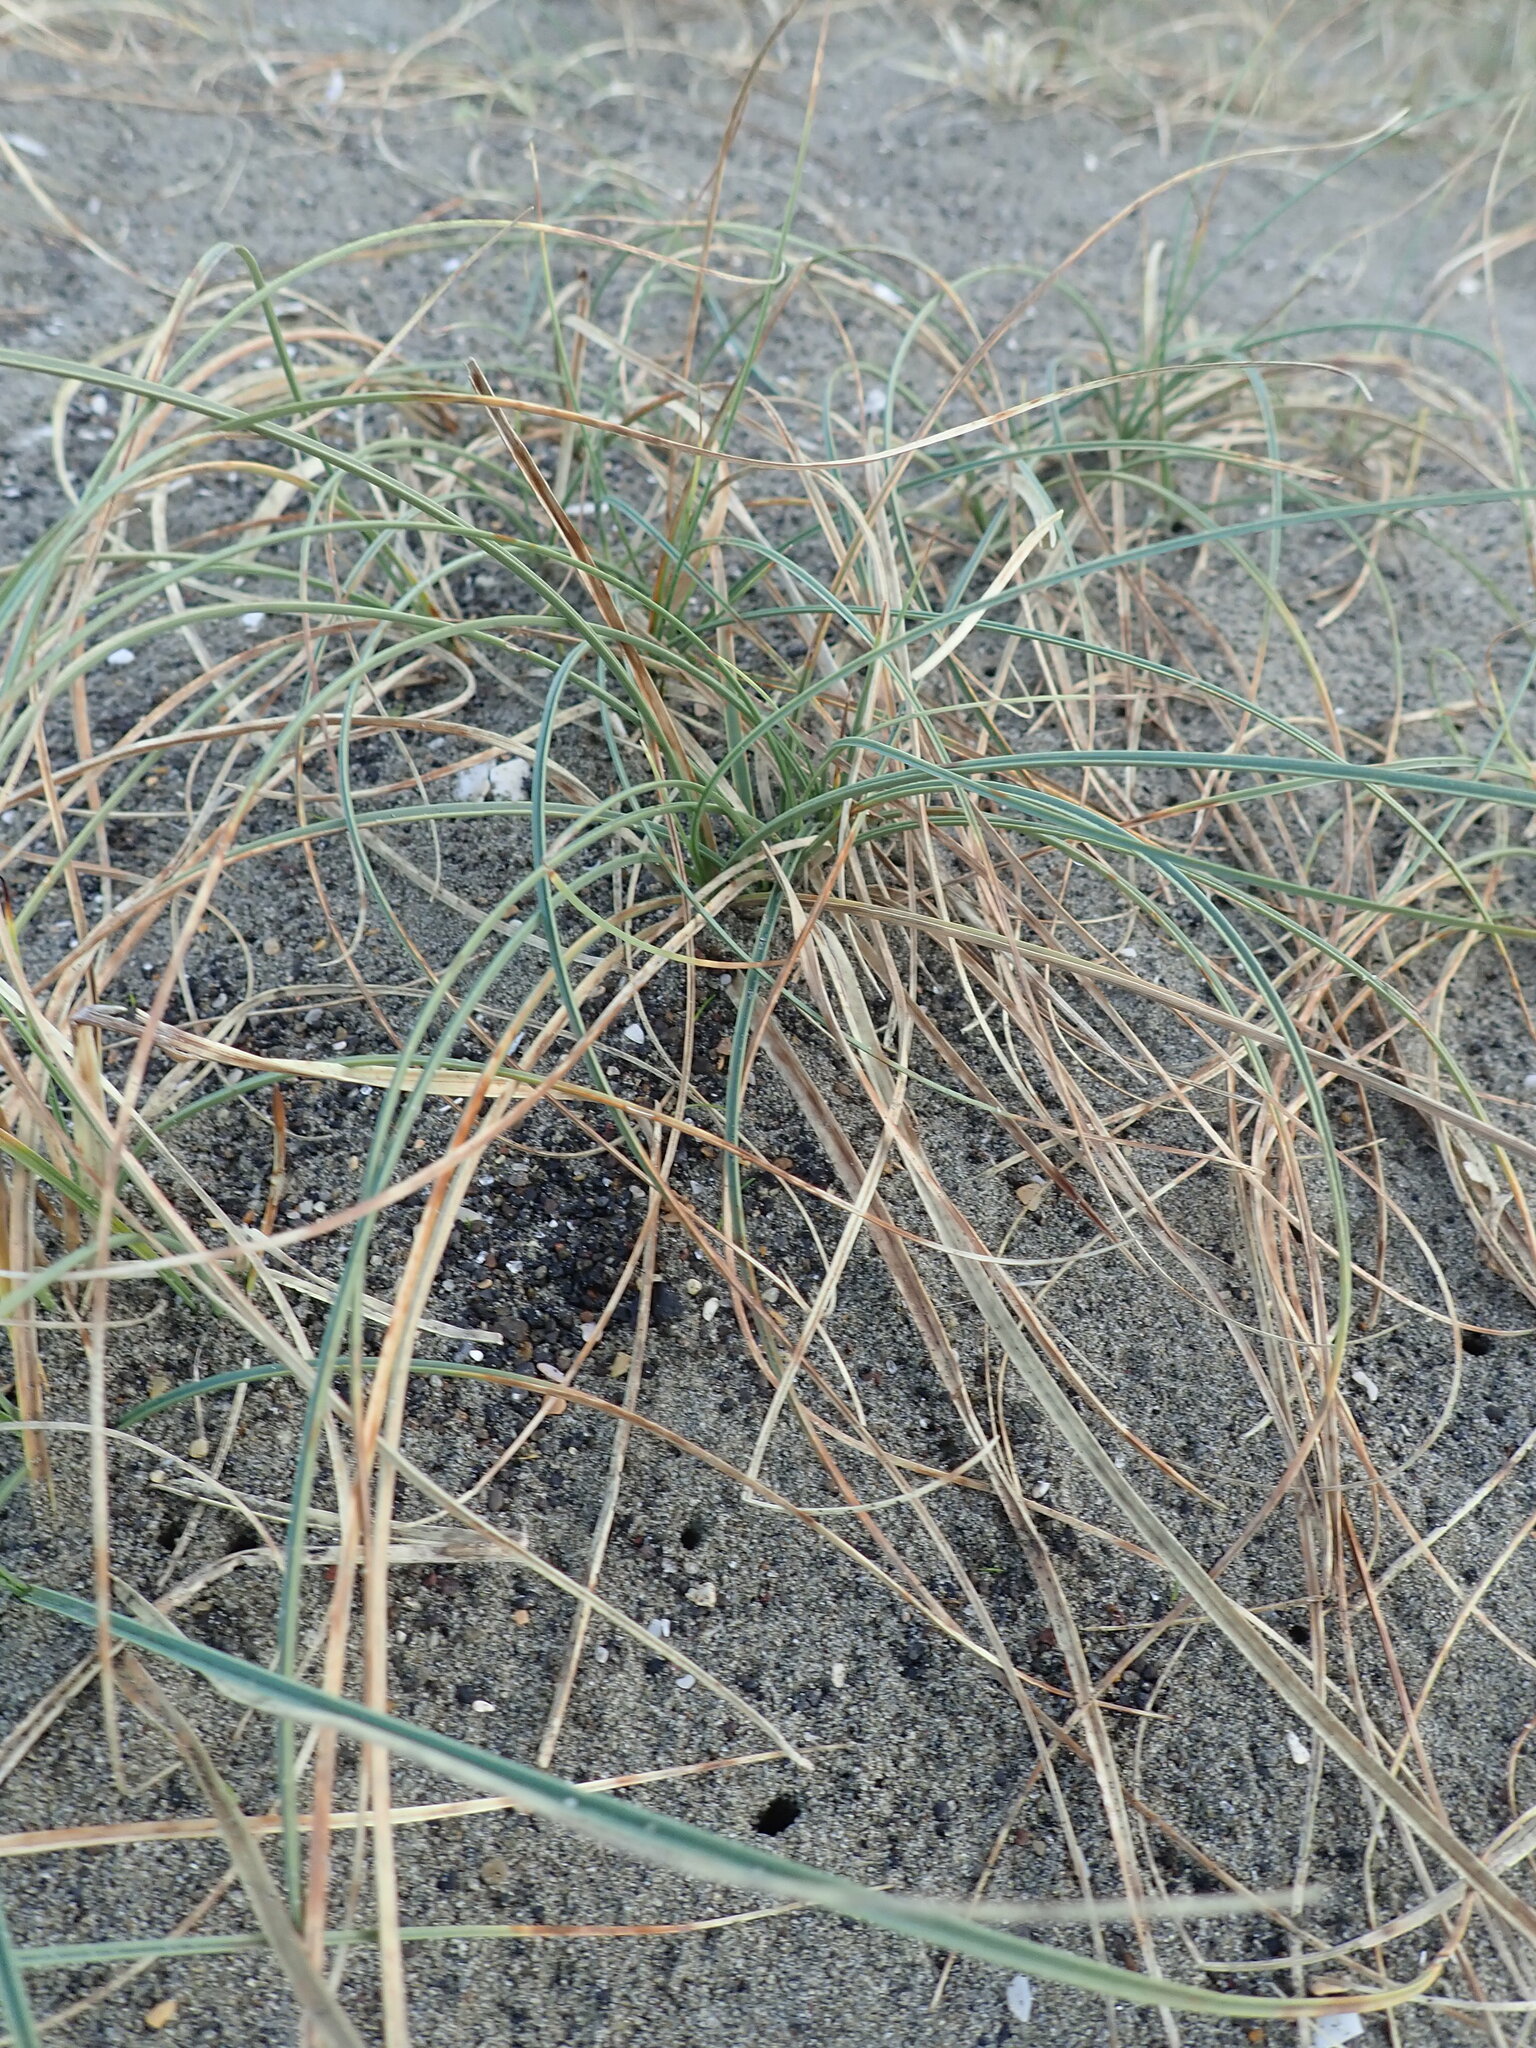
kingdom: Plantae
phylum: Tracheophyta
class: Liliopsida
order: Poales
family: Cyperaceae
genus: Carex
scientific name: Carex pumila
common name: Dwarf sedge
